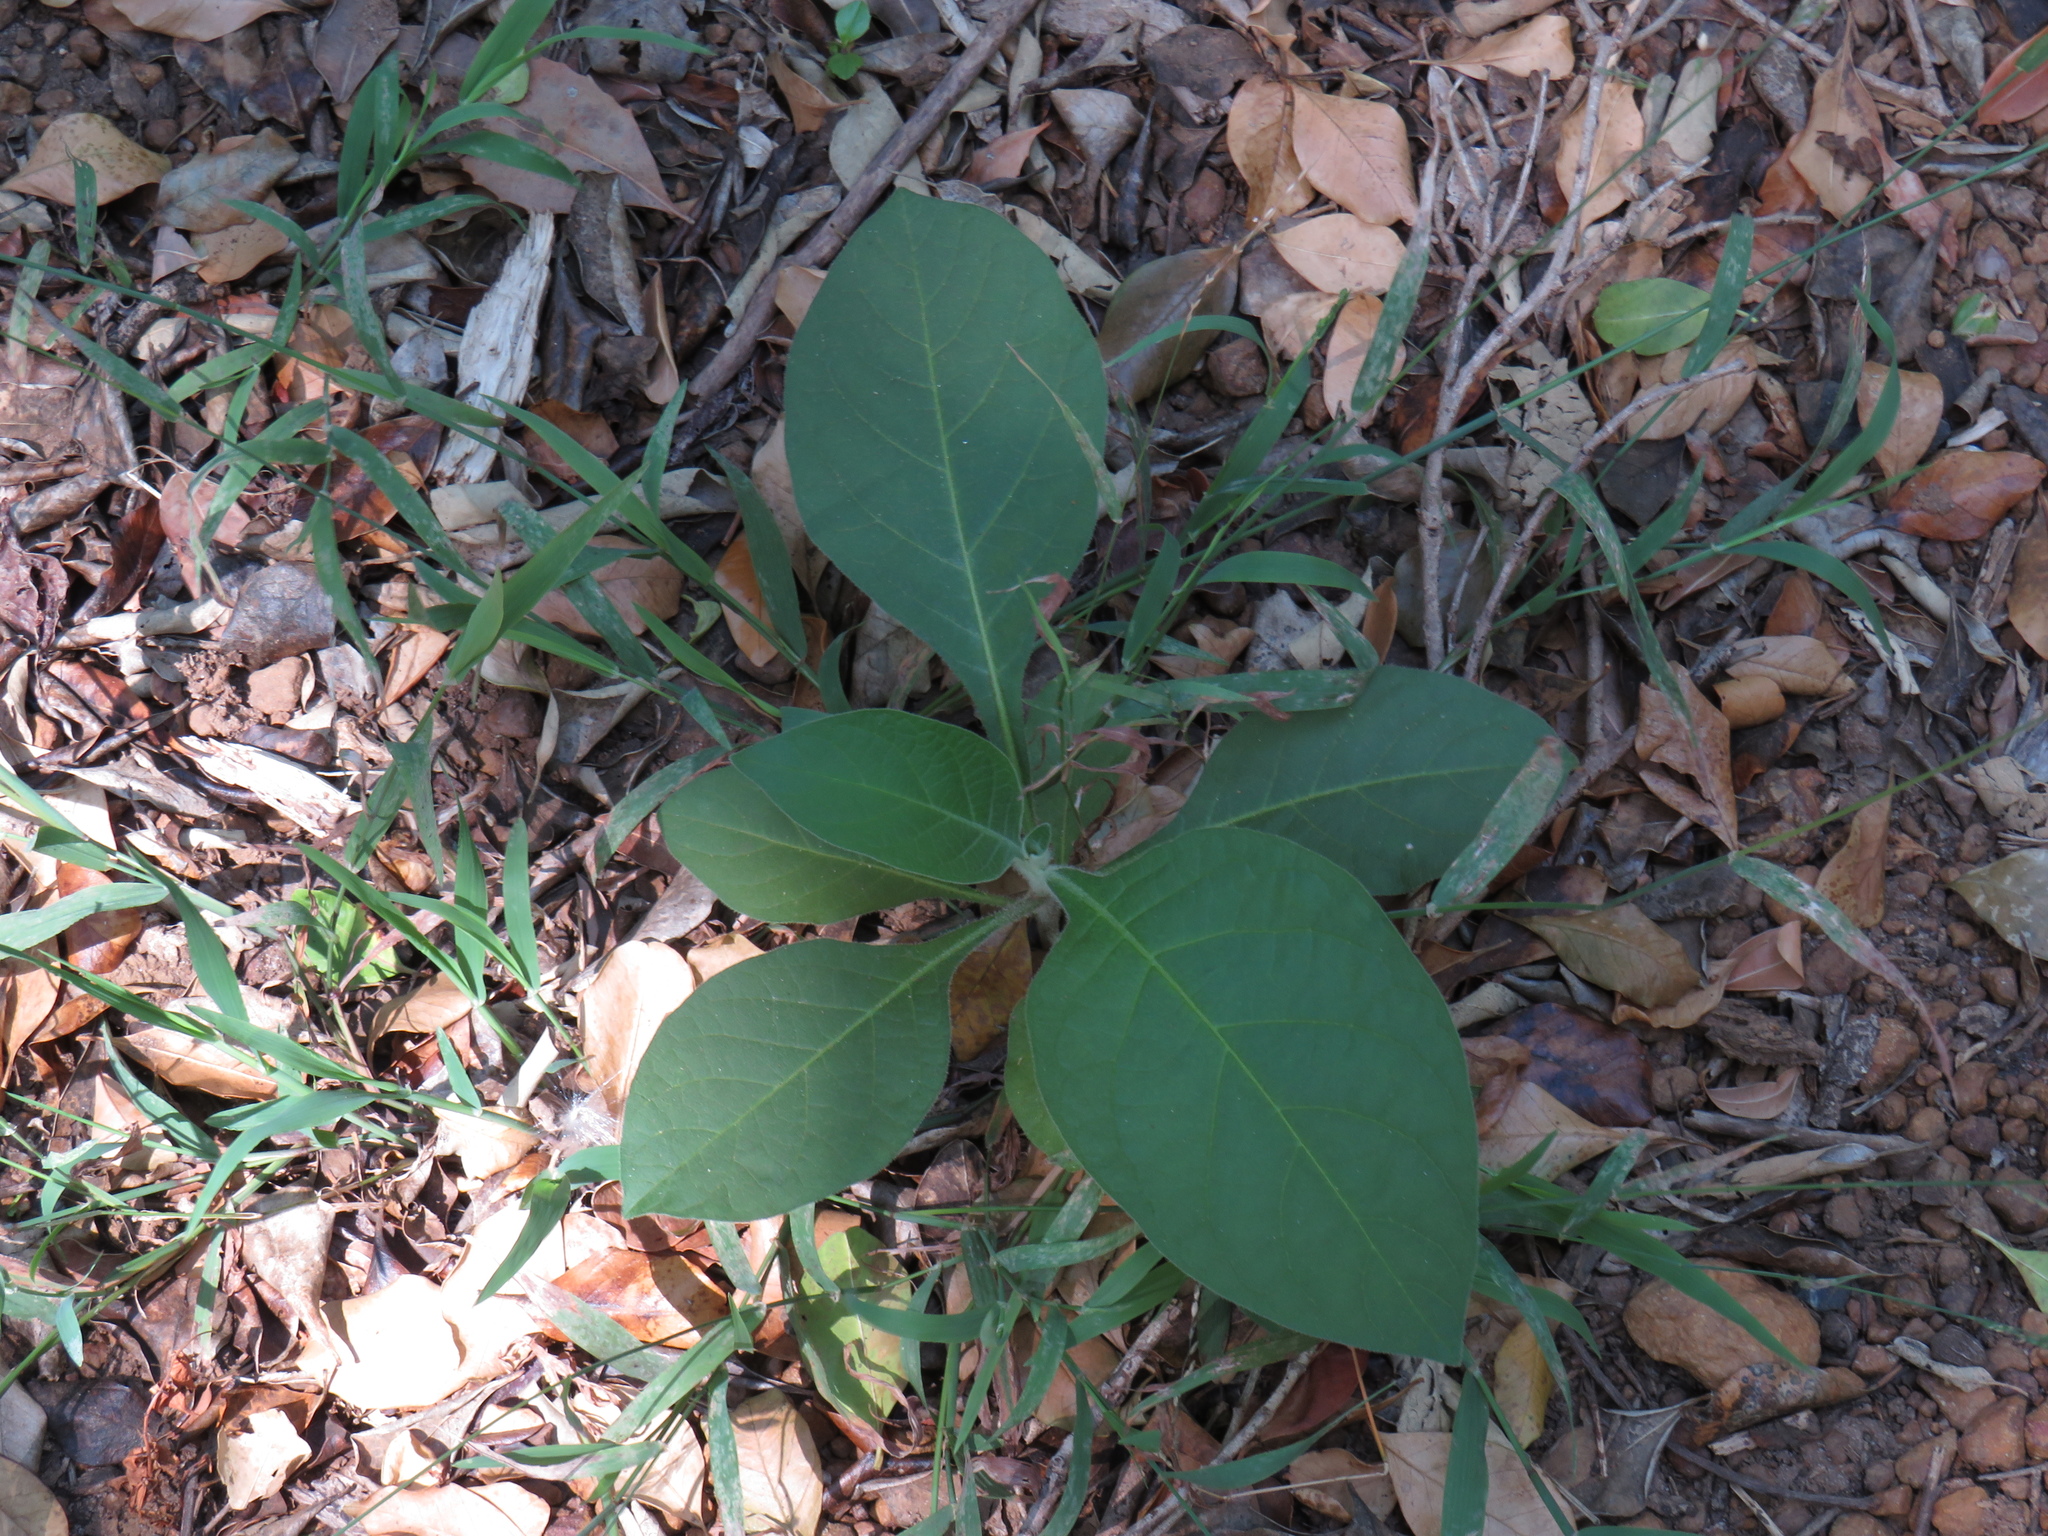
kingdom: Plantae
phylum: Tracheophyta
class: Magnoliopsida
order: Solanales
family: Solanaceae
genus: Solanum
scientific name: Solanum mauritianum
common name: Earleaf nightshade
